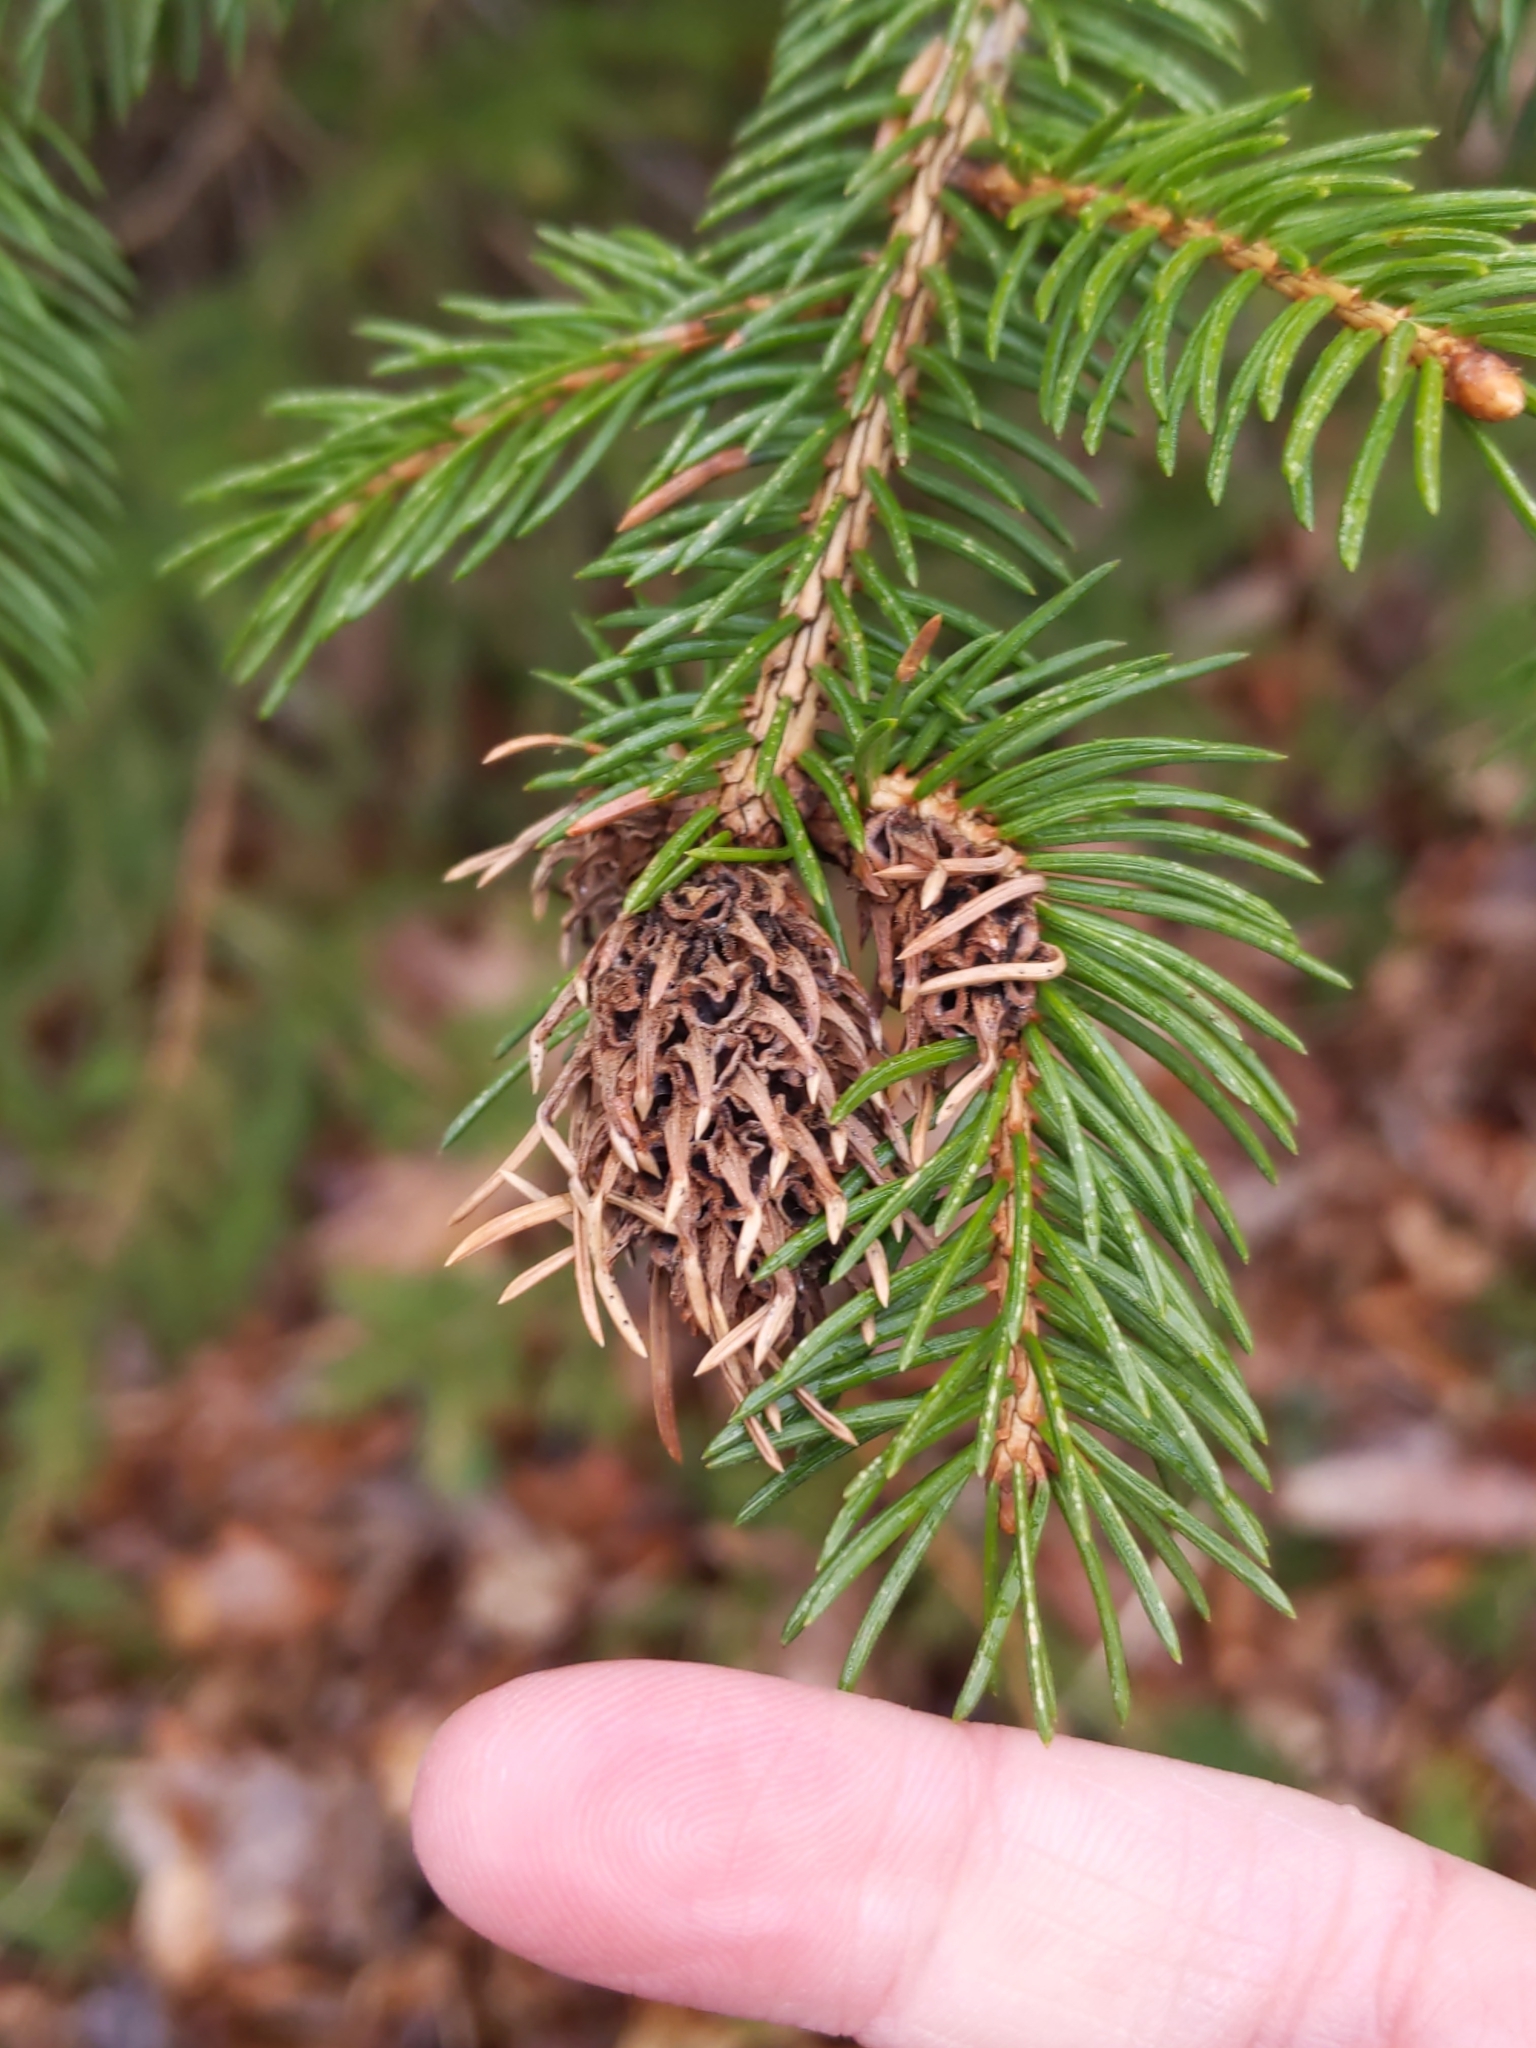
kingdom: Plantae
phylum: Tracheophyta
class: Pinopsida
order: Pinales
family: Pinaceae
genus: Picea
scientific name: Picea abies
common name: Norway spruce
